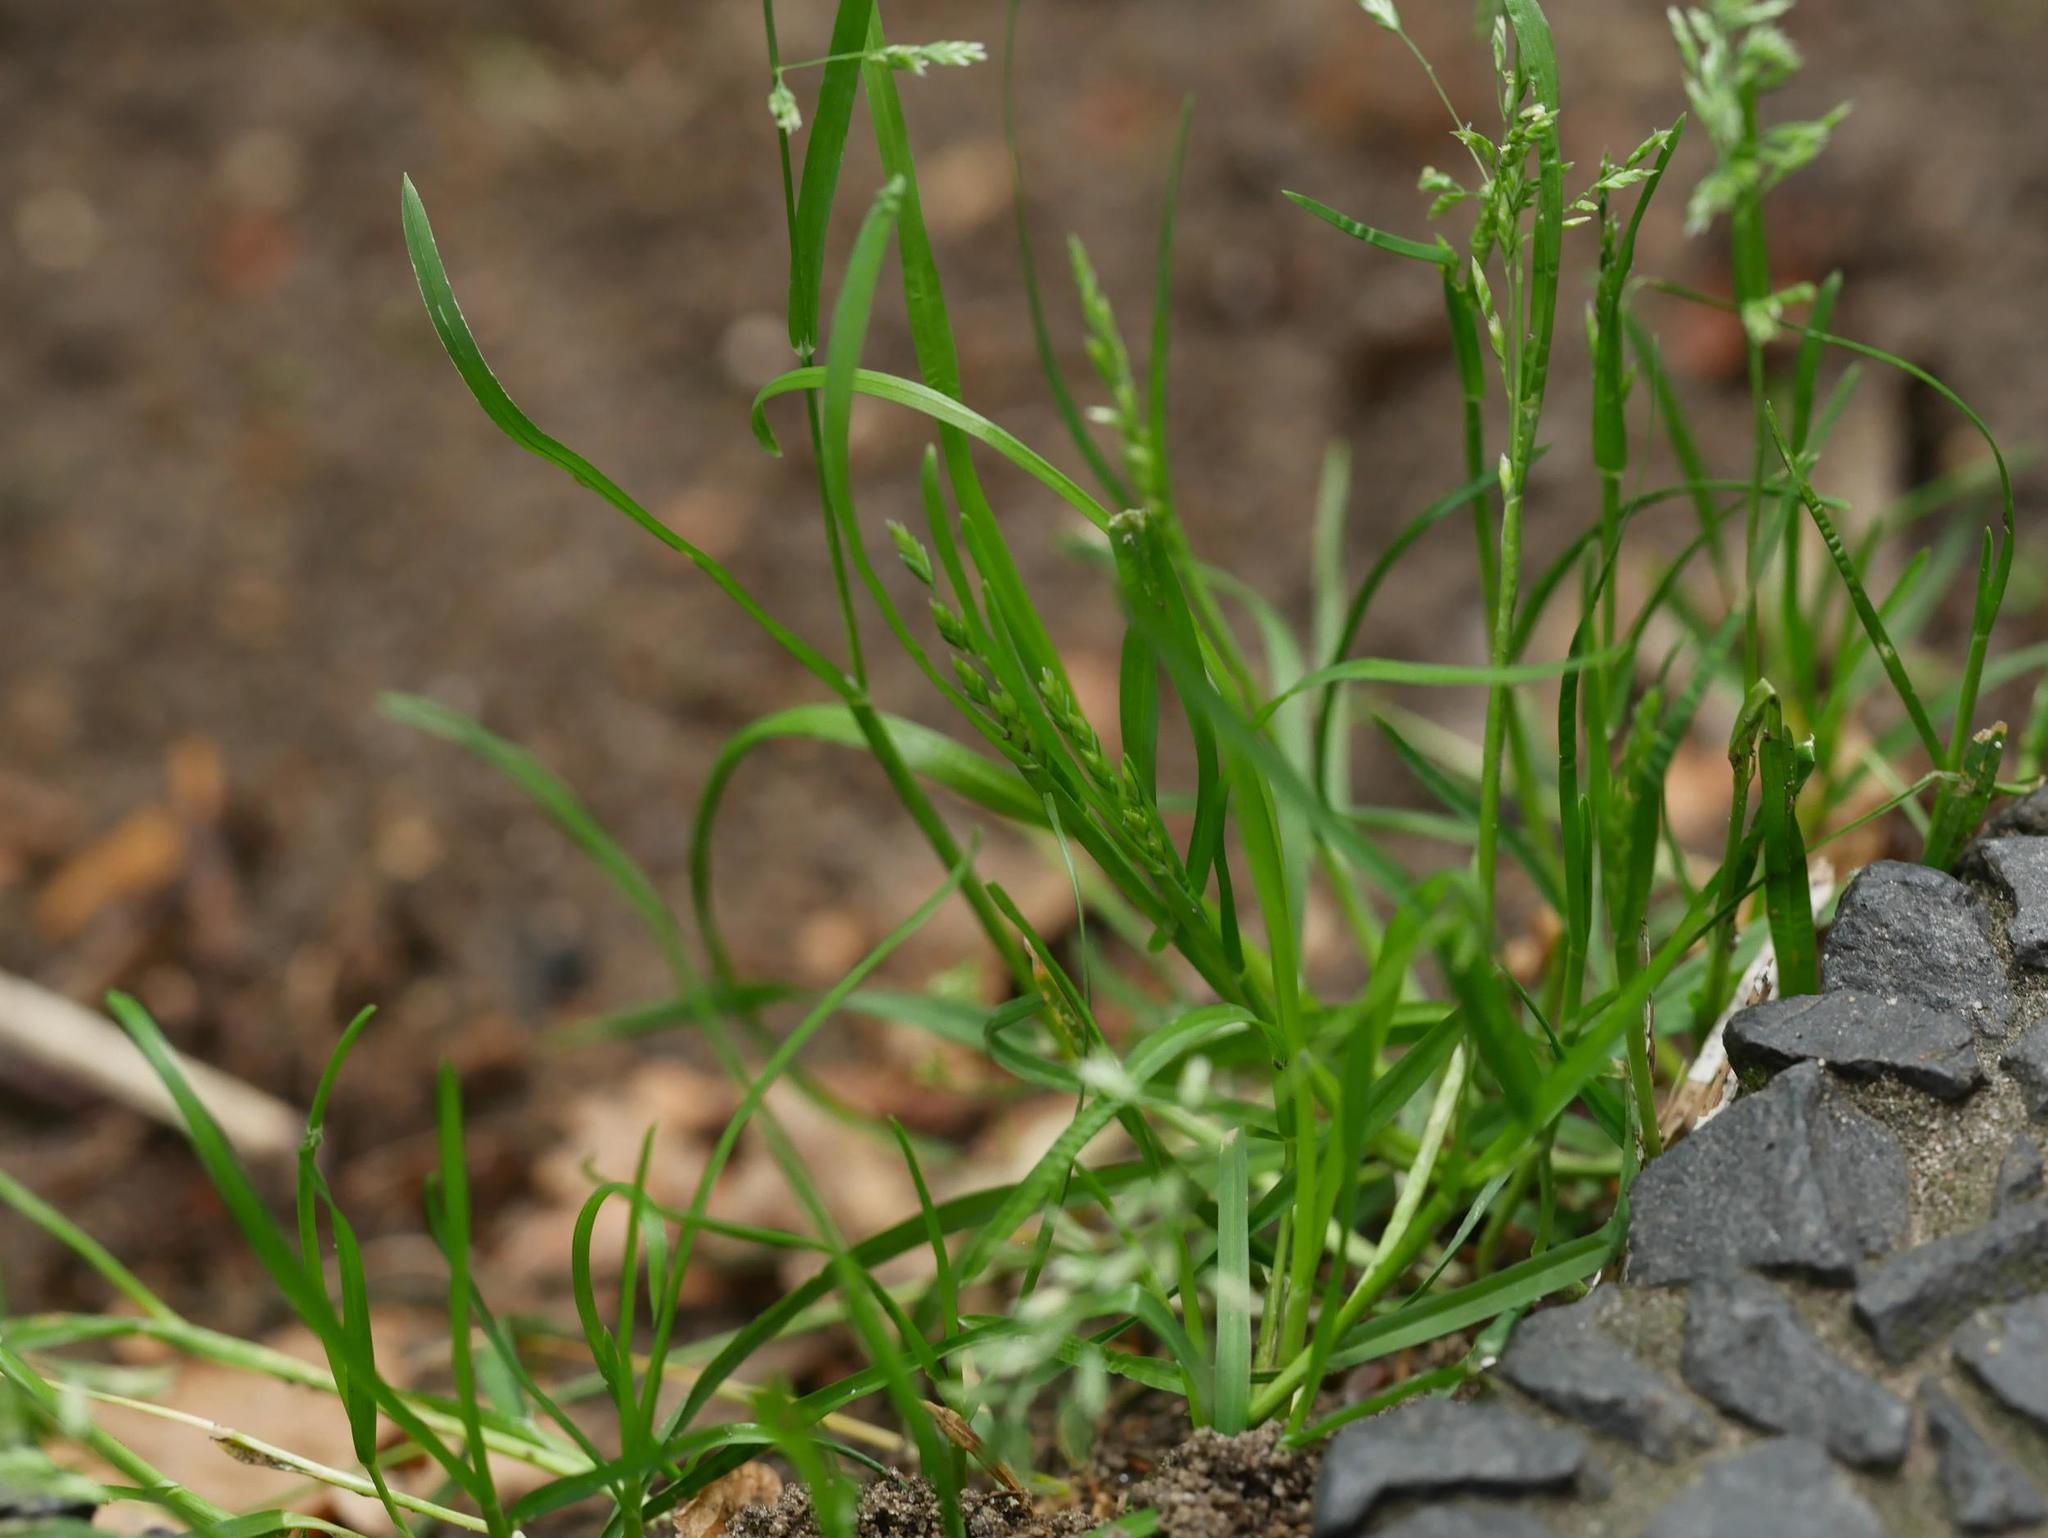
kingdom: Plantae
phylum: Tracheophyta
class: Liliopsida
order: Poales
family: Poaceae
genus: Poa
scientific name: Poa annua
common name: Annual bluegrass
